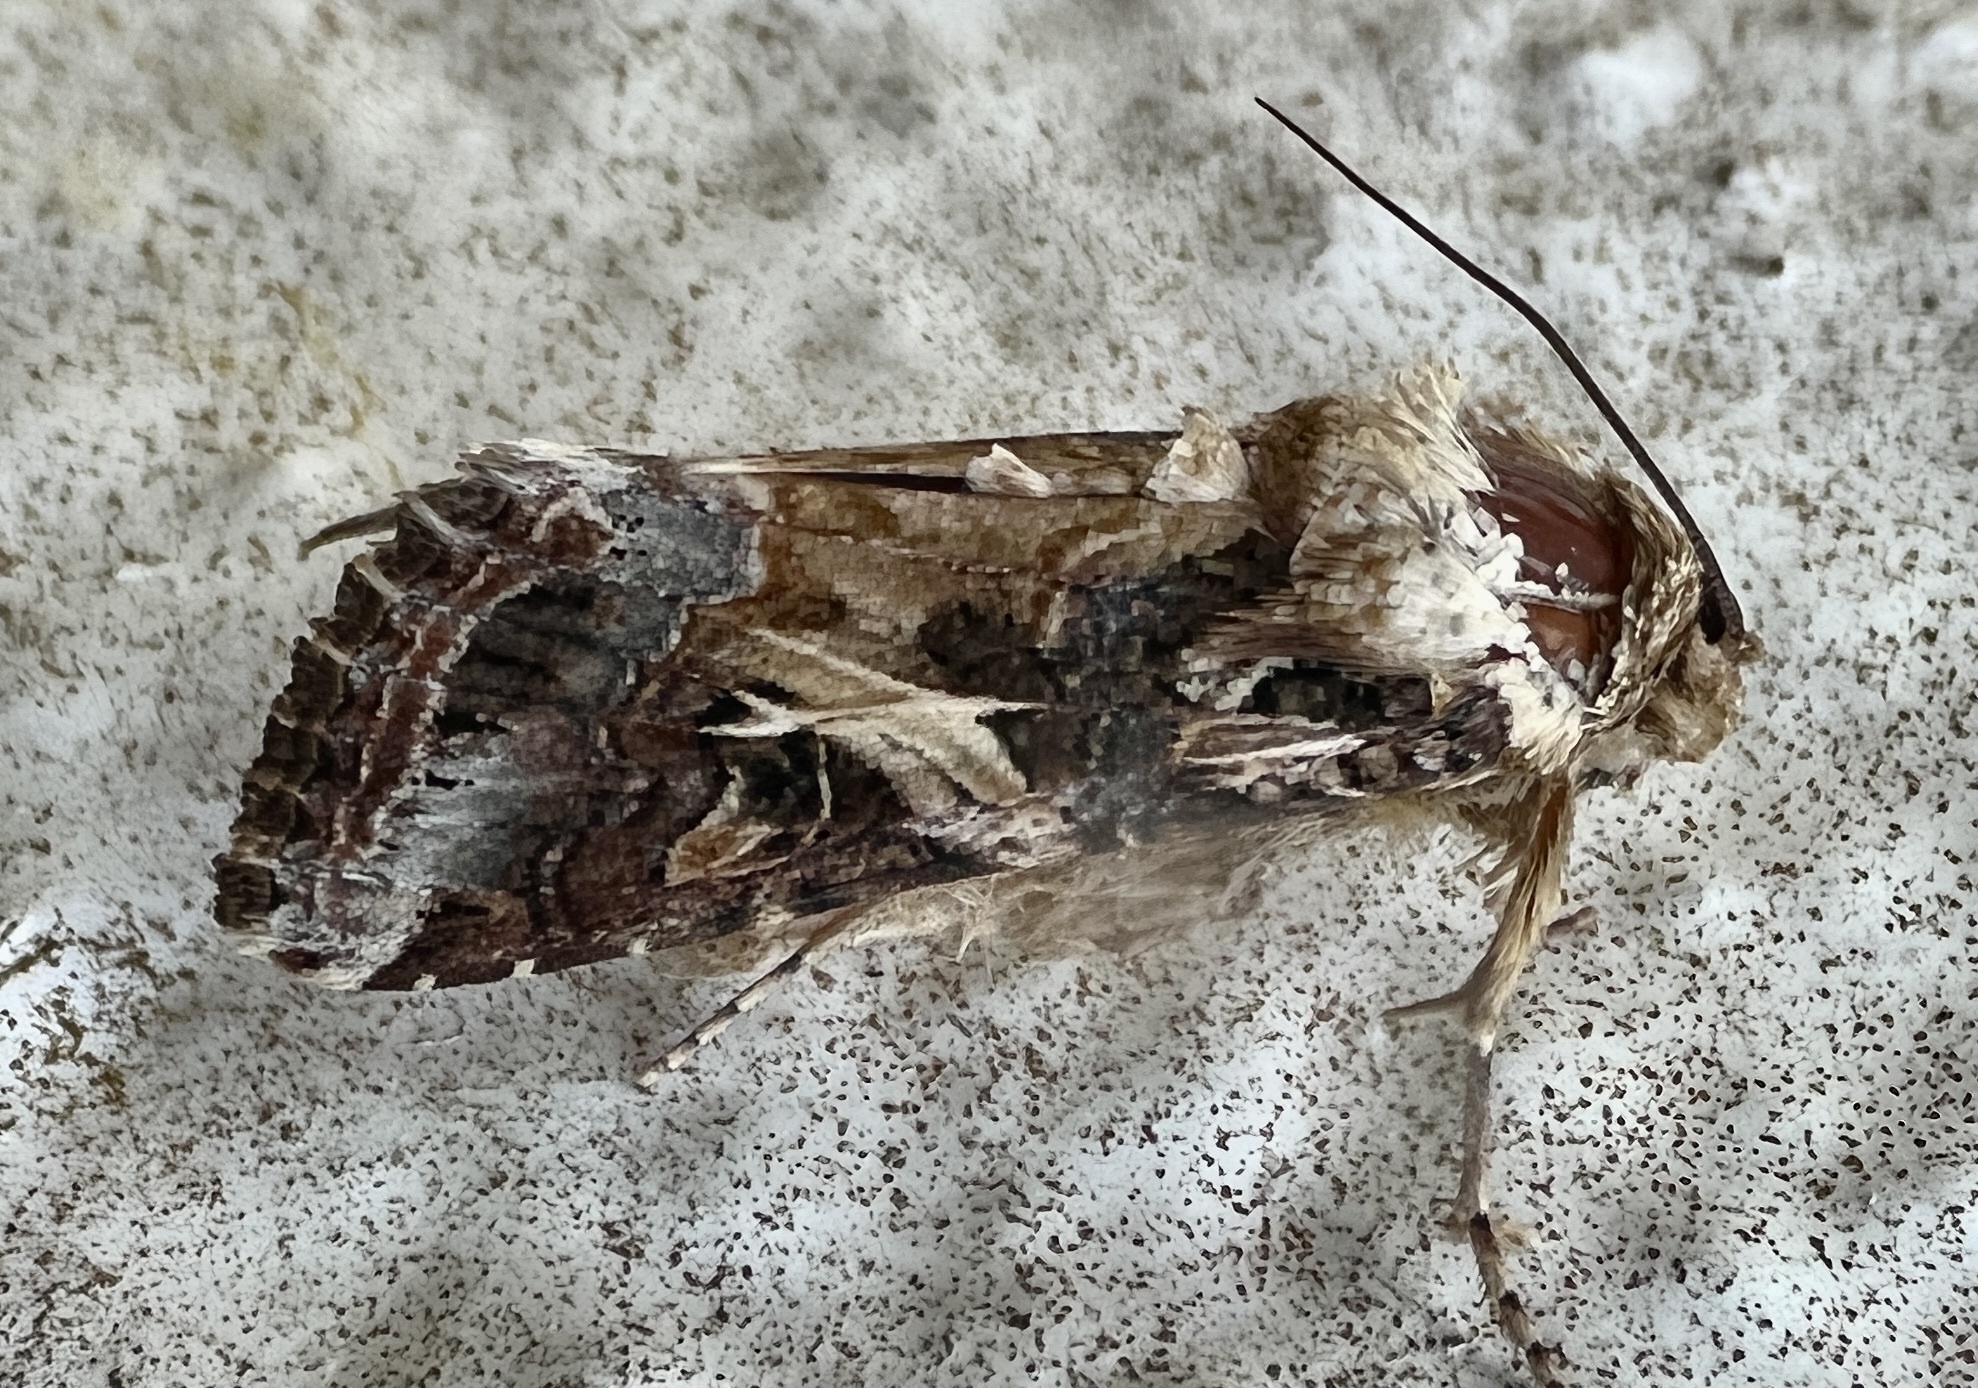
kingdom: Animalia
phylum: Arthropoda
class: Insecta
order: Lepidoptera
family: Noctuidae
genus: Spodoptera
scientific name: Spodoptera ornithogalli
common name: Yellow-striped armyworm
